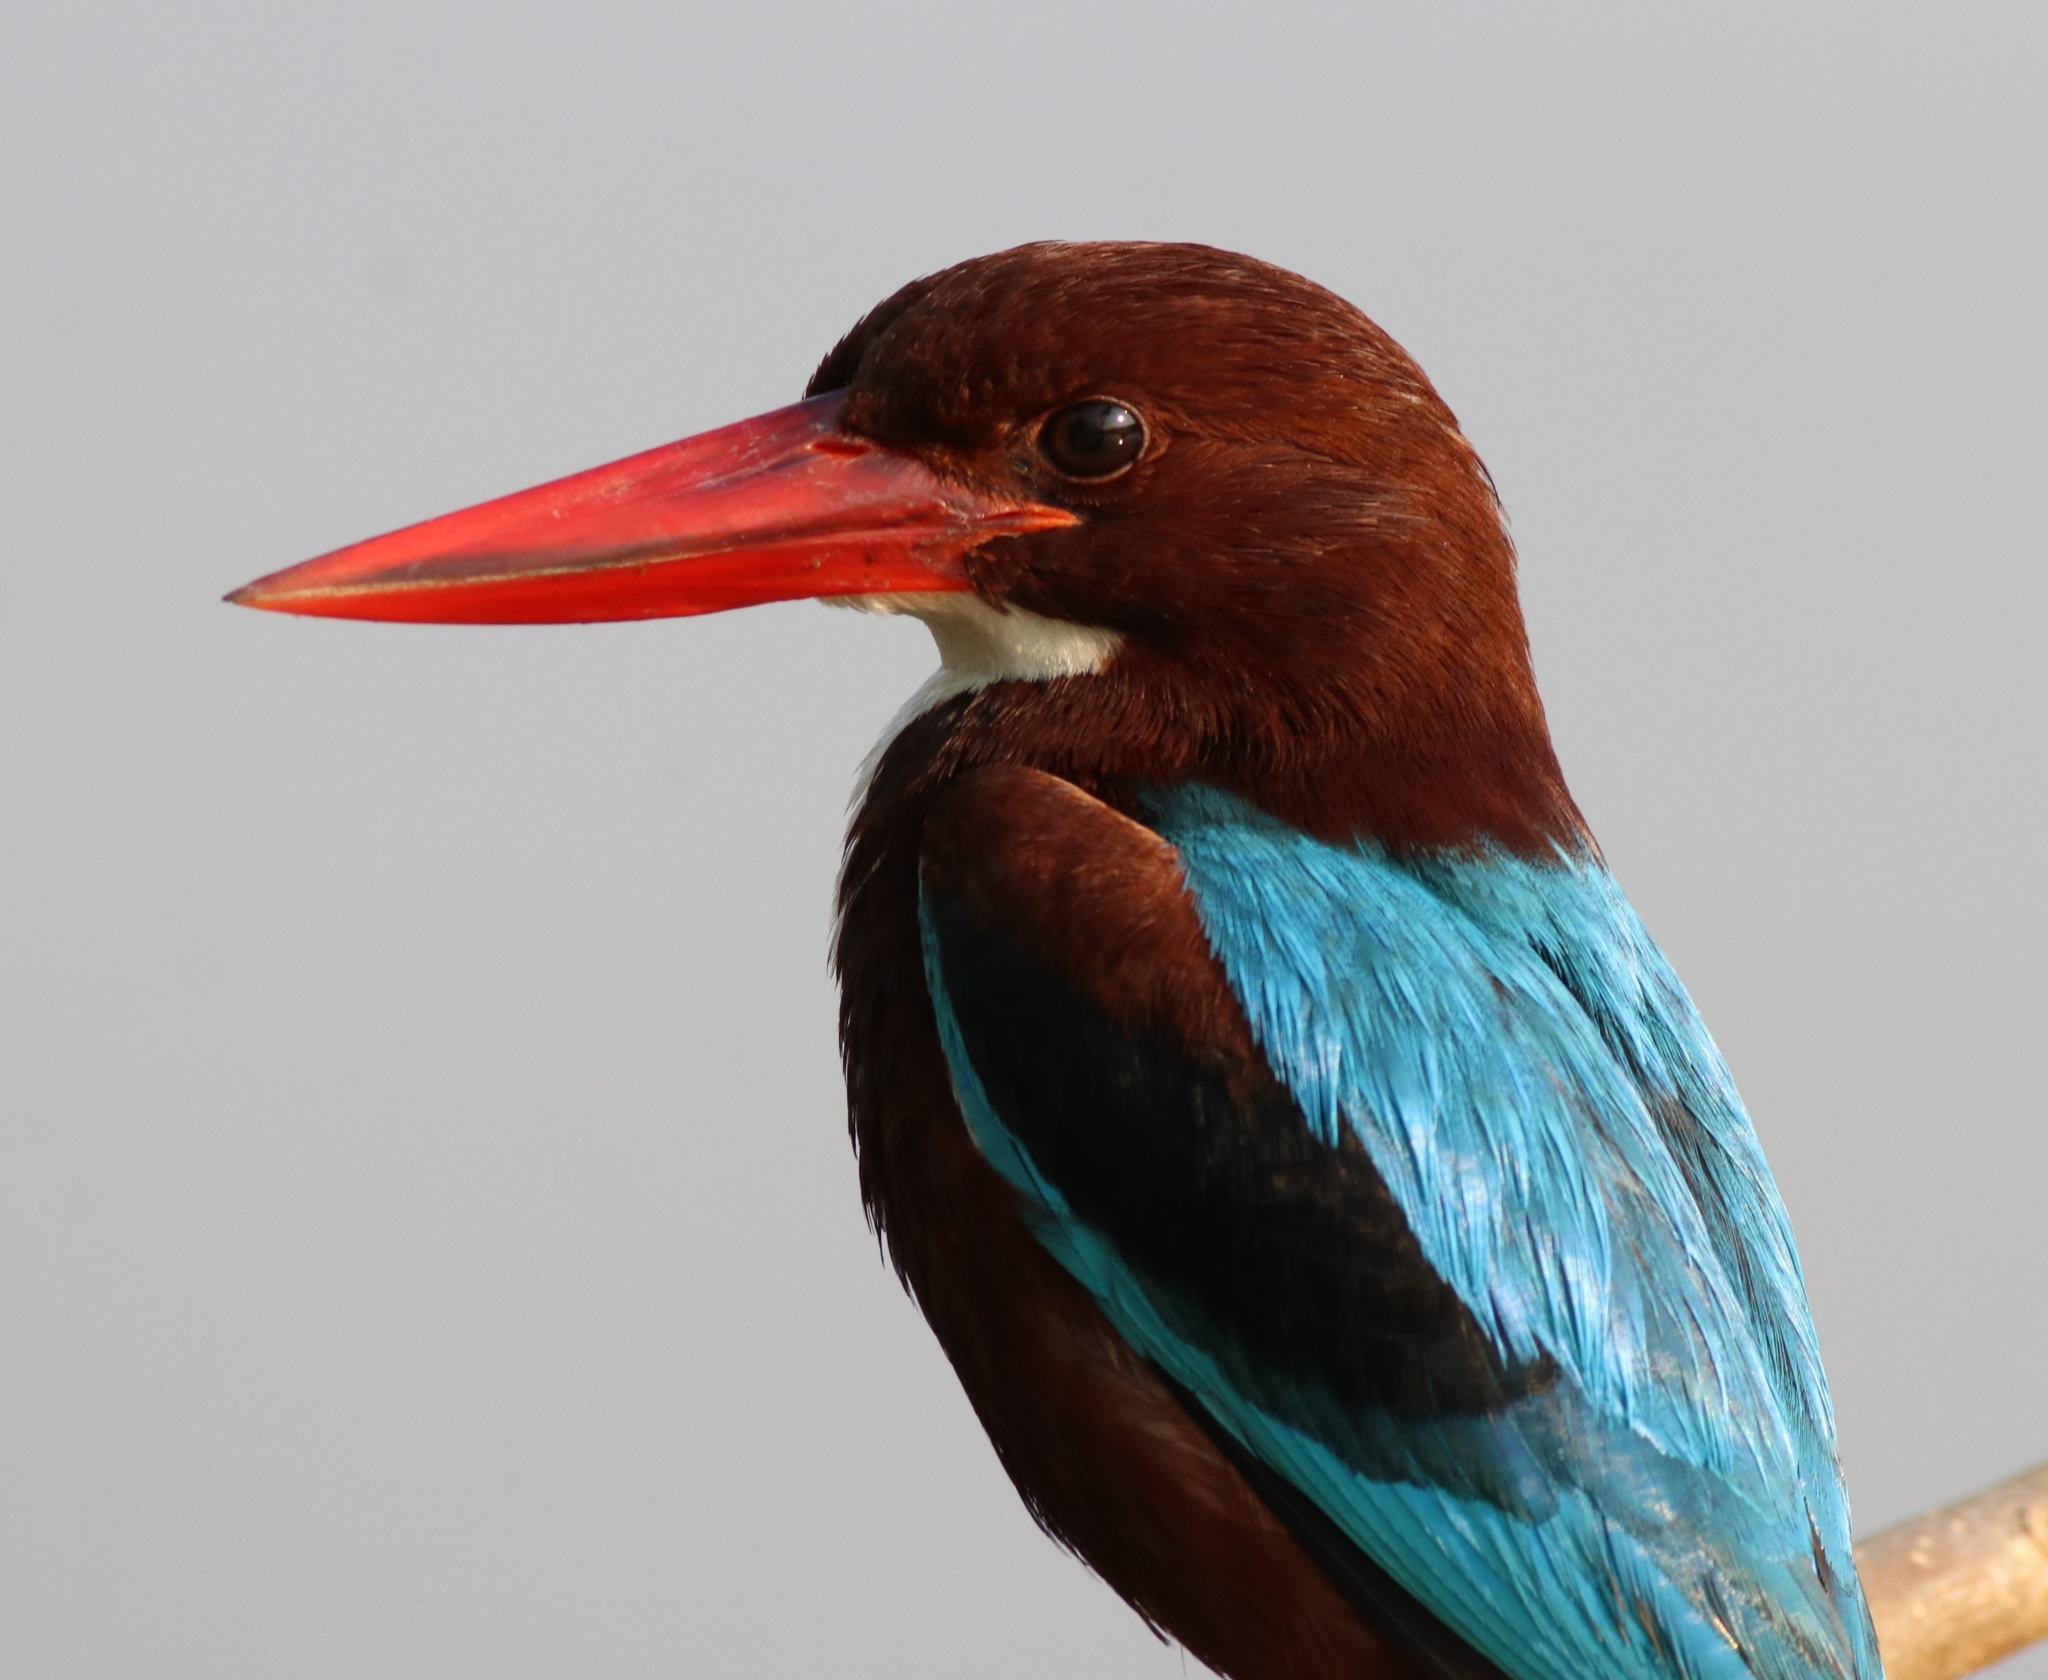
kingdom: Animalia
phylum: Chordata
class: Aves
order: Coraciiformes
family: Alcedinidae
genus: Halcyon
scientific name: Halcyon smyrnensis
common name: White-throated kingfisher
